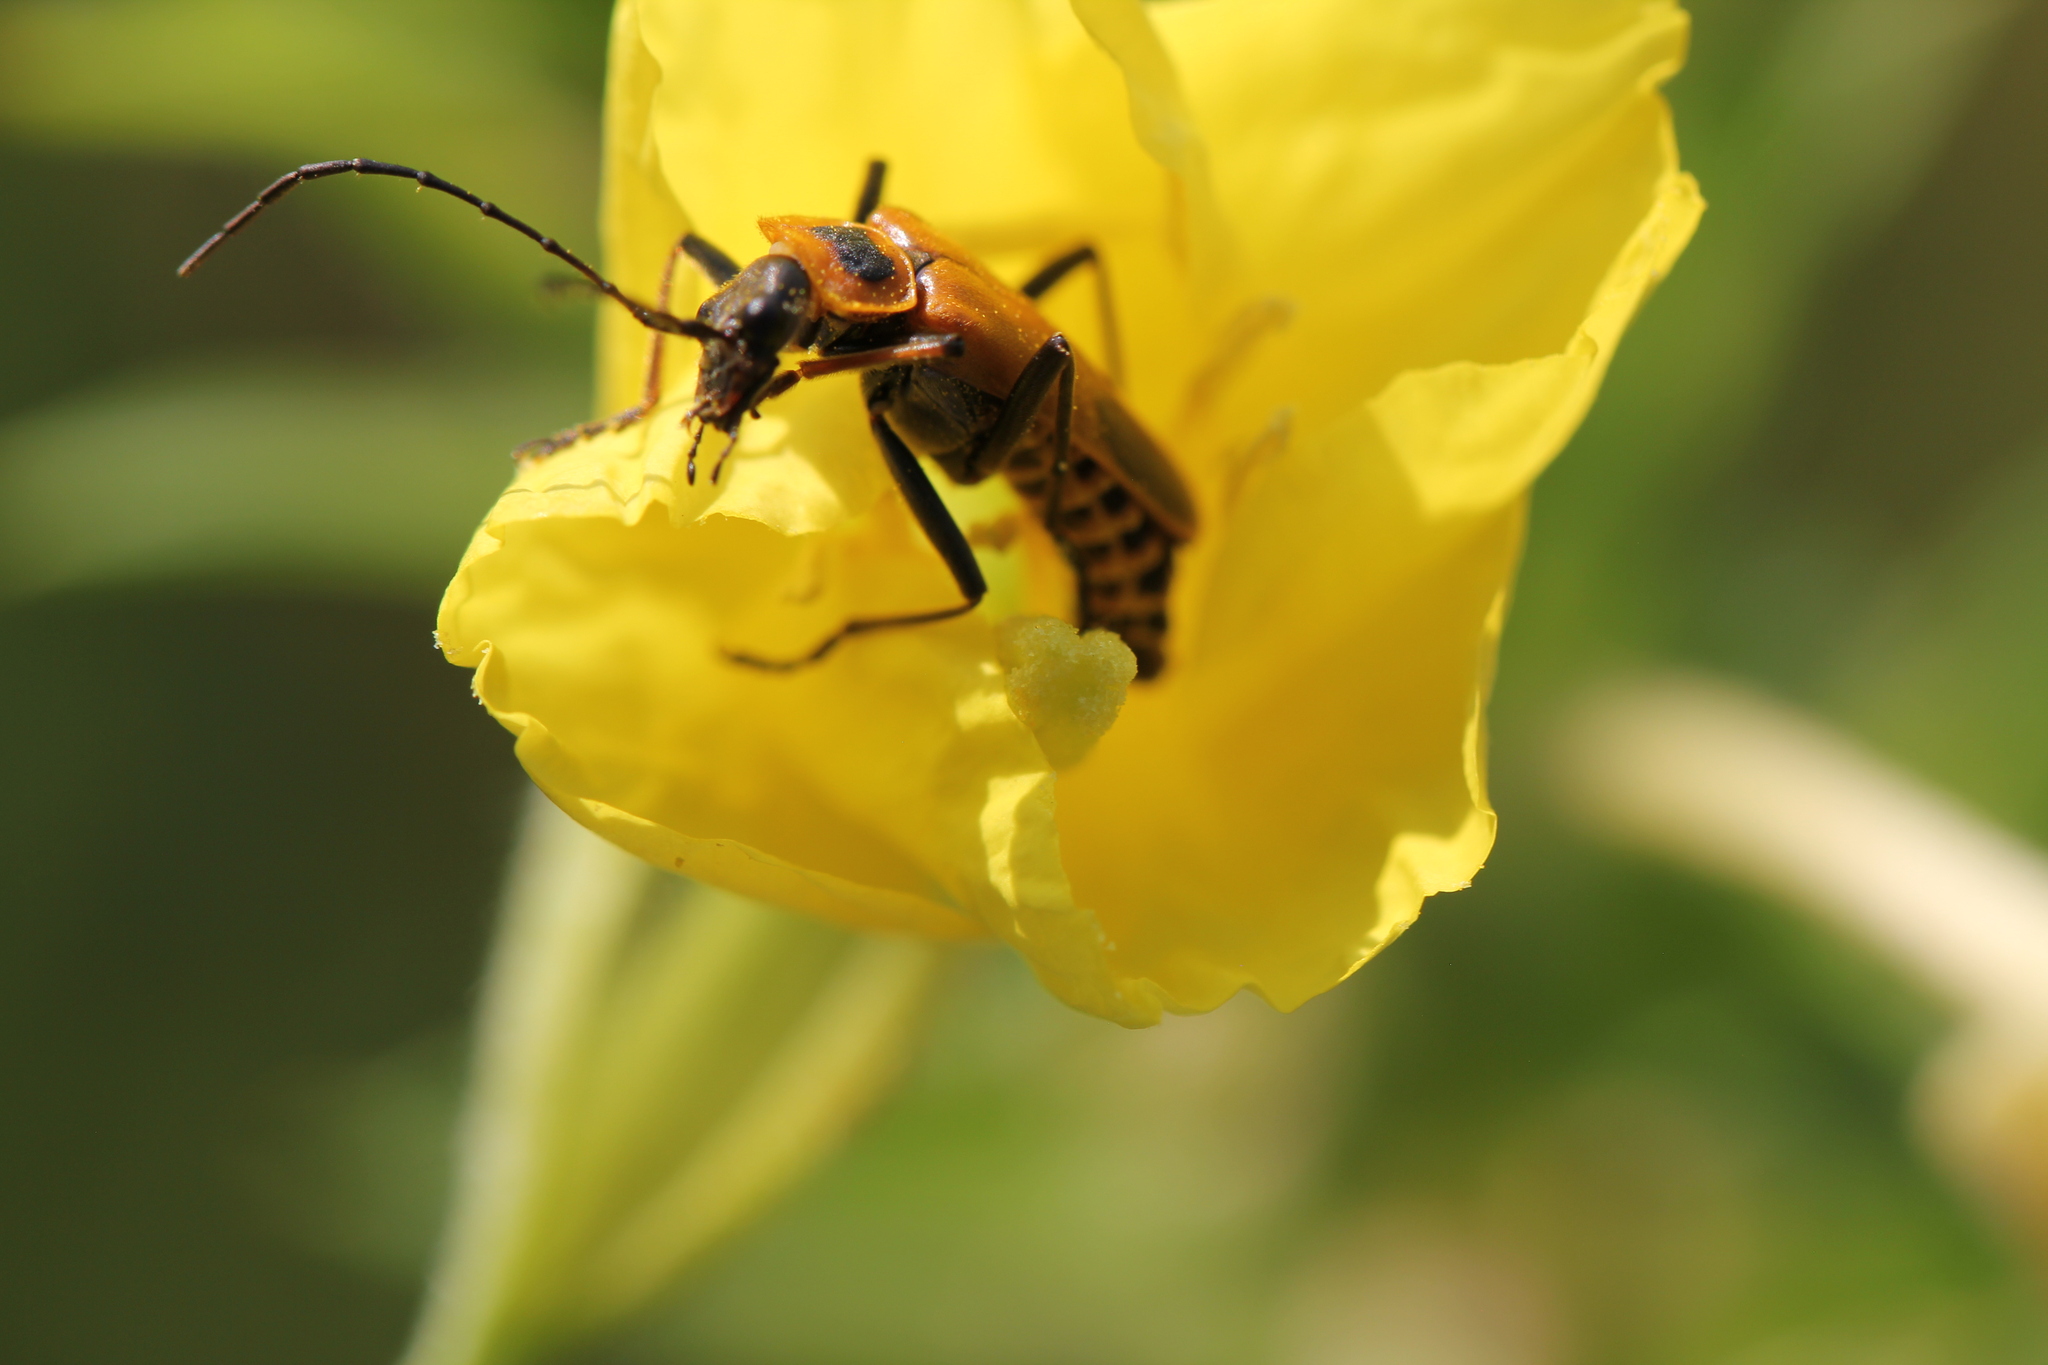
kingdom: Animalia
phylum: Arthropoda
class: Insecta
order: Coleoptera
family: Cantharidae
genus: Chauliognathus
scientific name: Chauliognathus pensylvanicus
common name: Goldenrod soldier beetle
